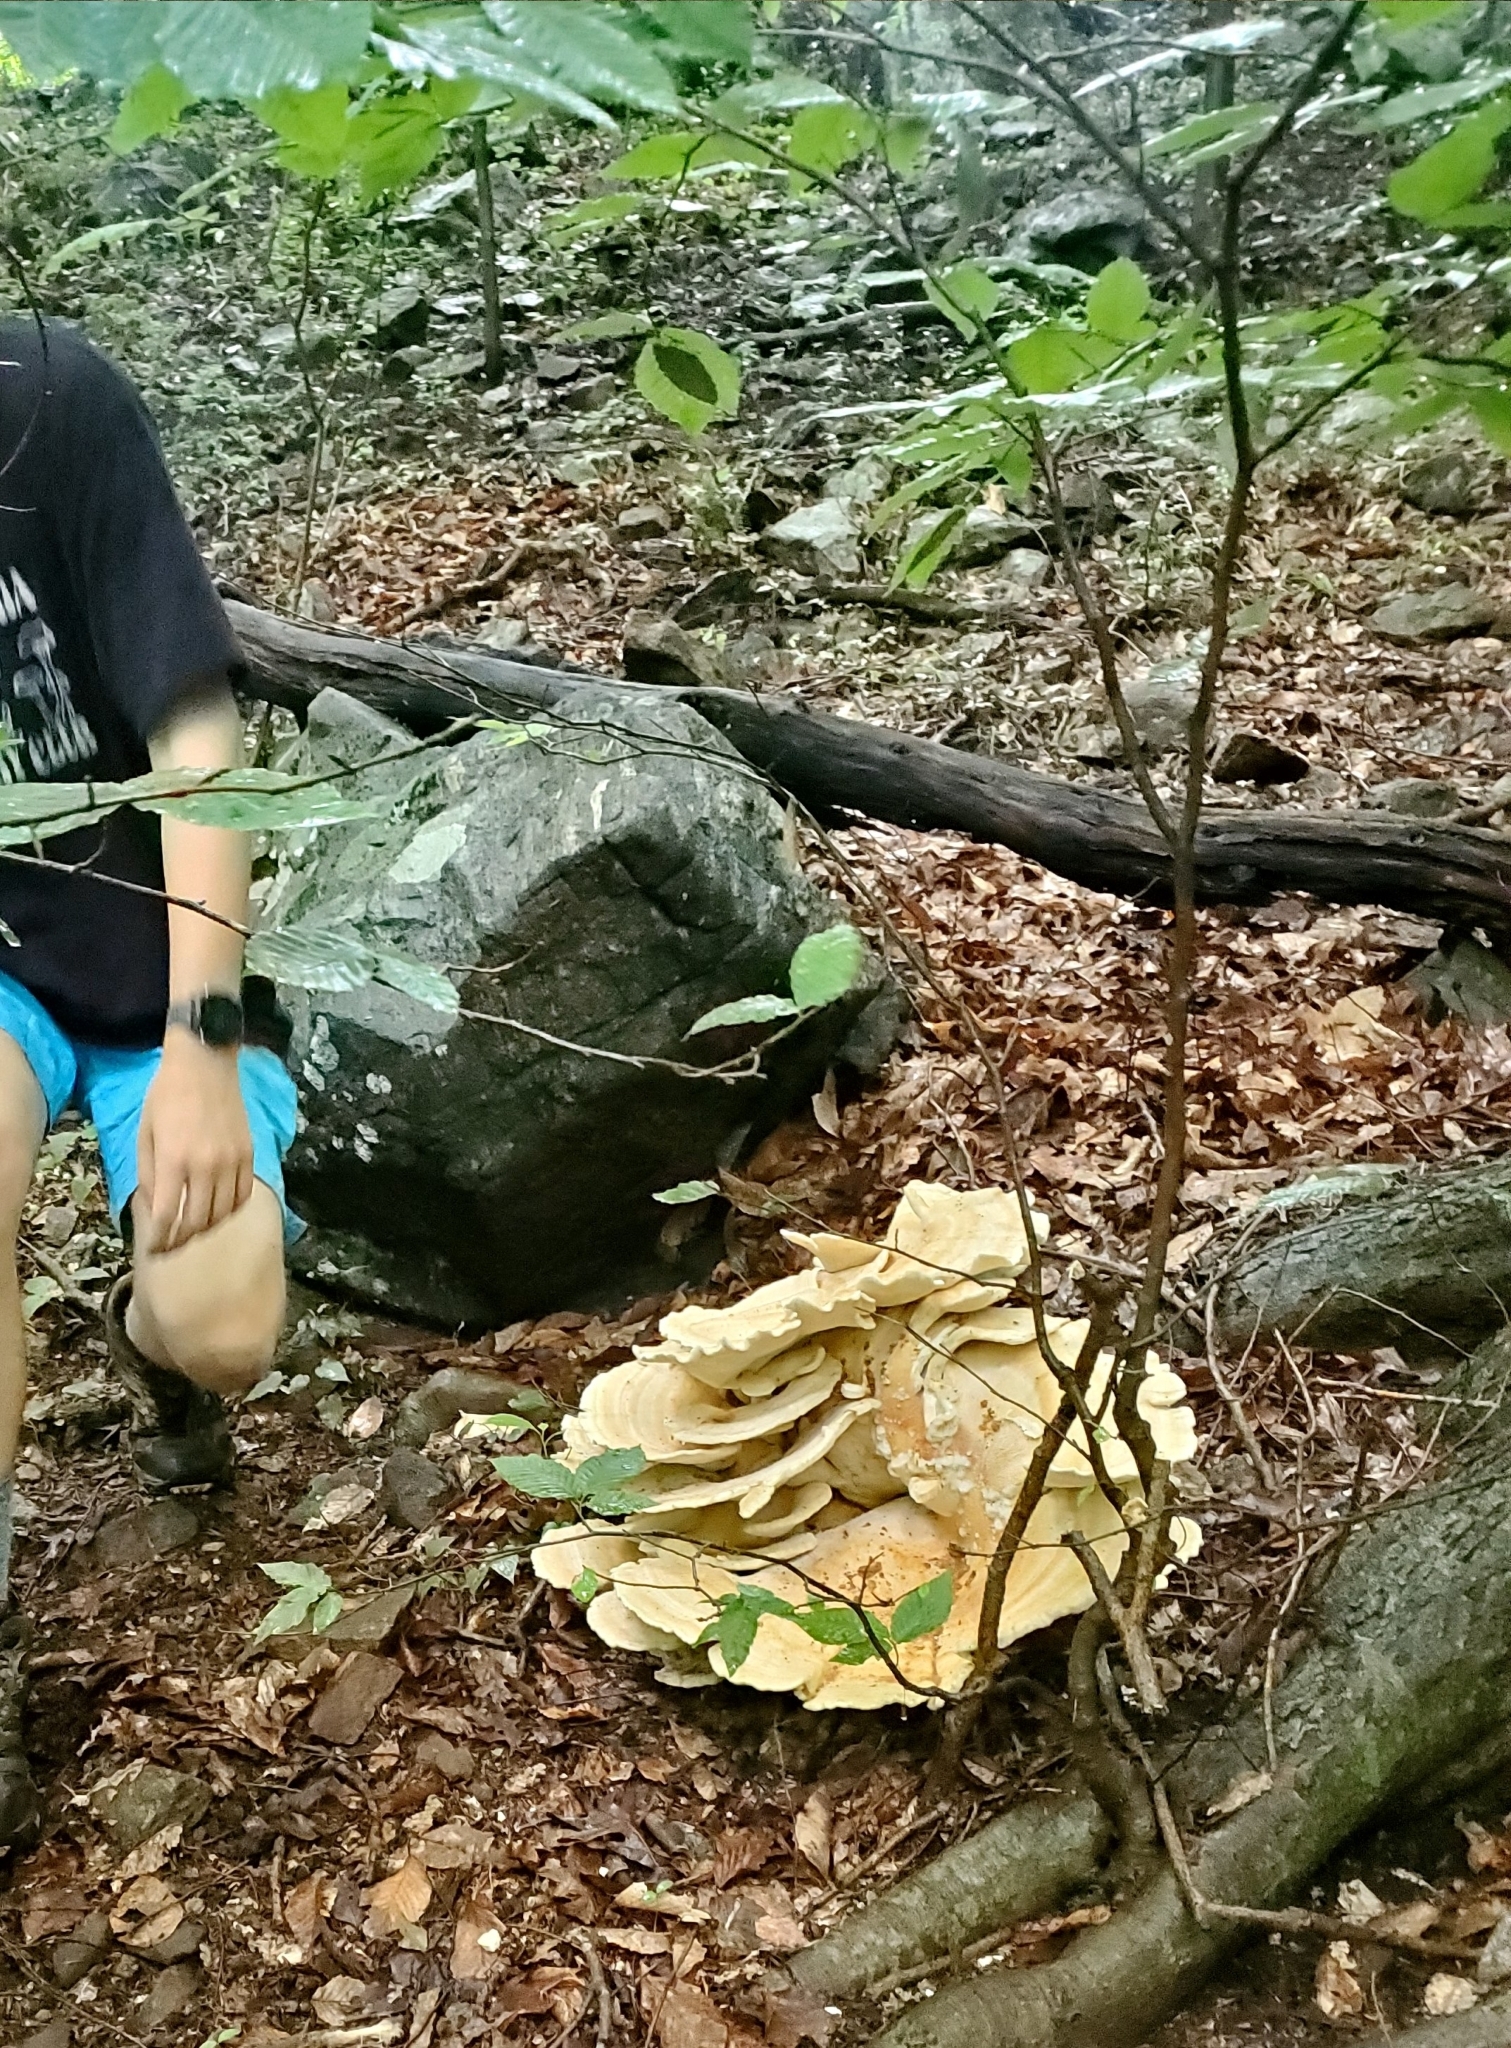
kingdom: Fungi
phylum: Basidiomycota
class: Agaricomycetes
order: Russulales
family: Bondarzewiaceae
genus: Bondarzewia
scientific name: Bondarzewia berkeleyi
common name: Berkeley's polypore
